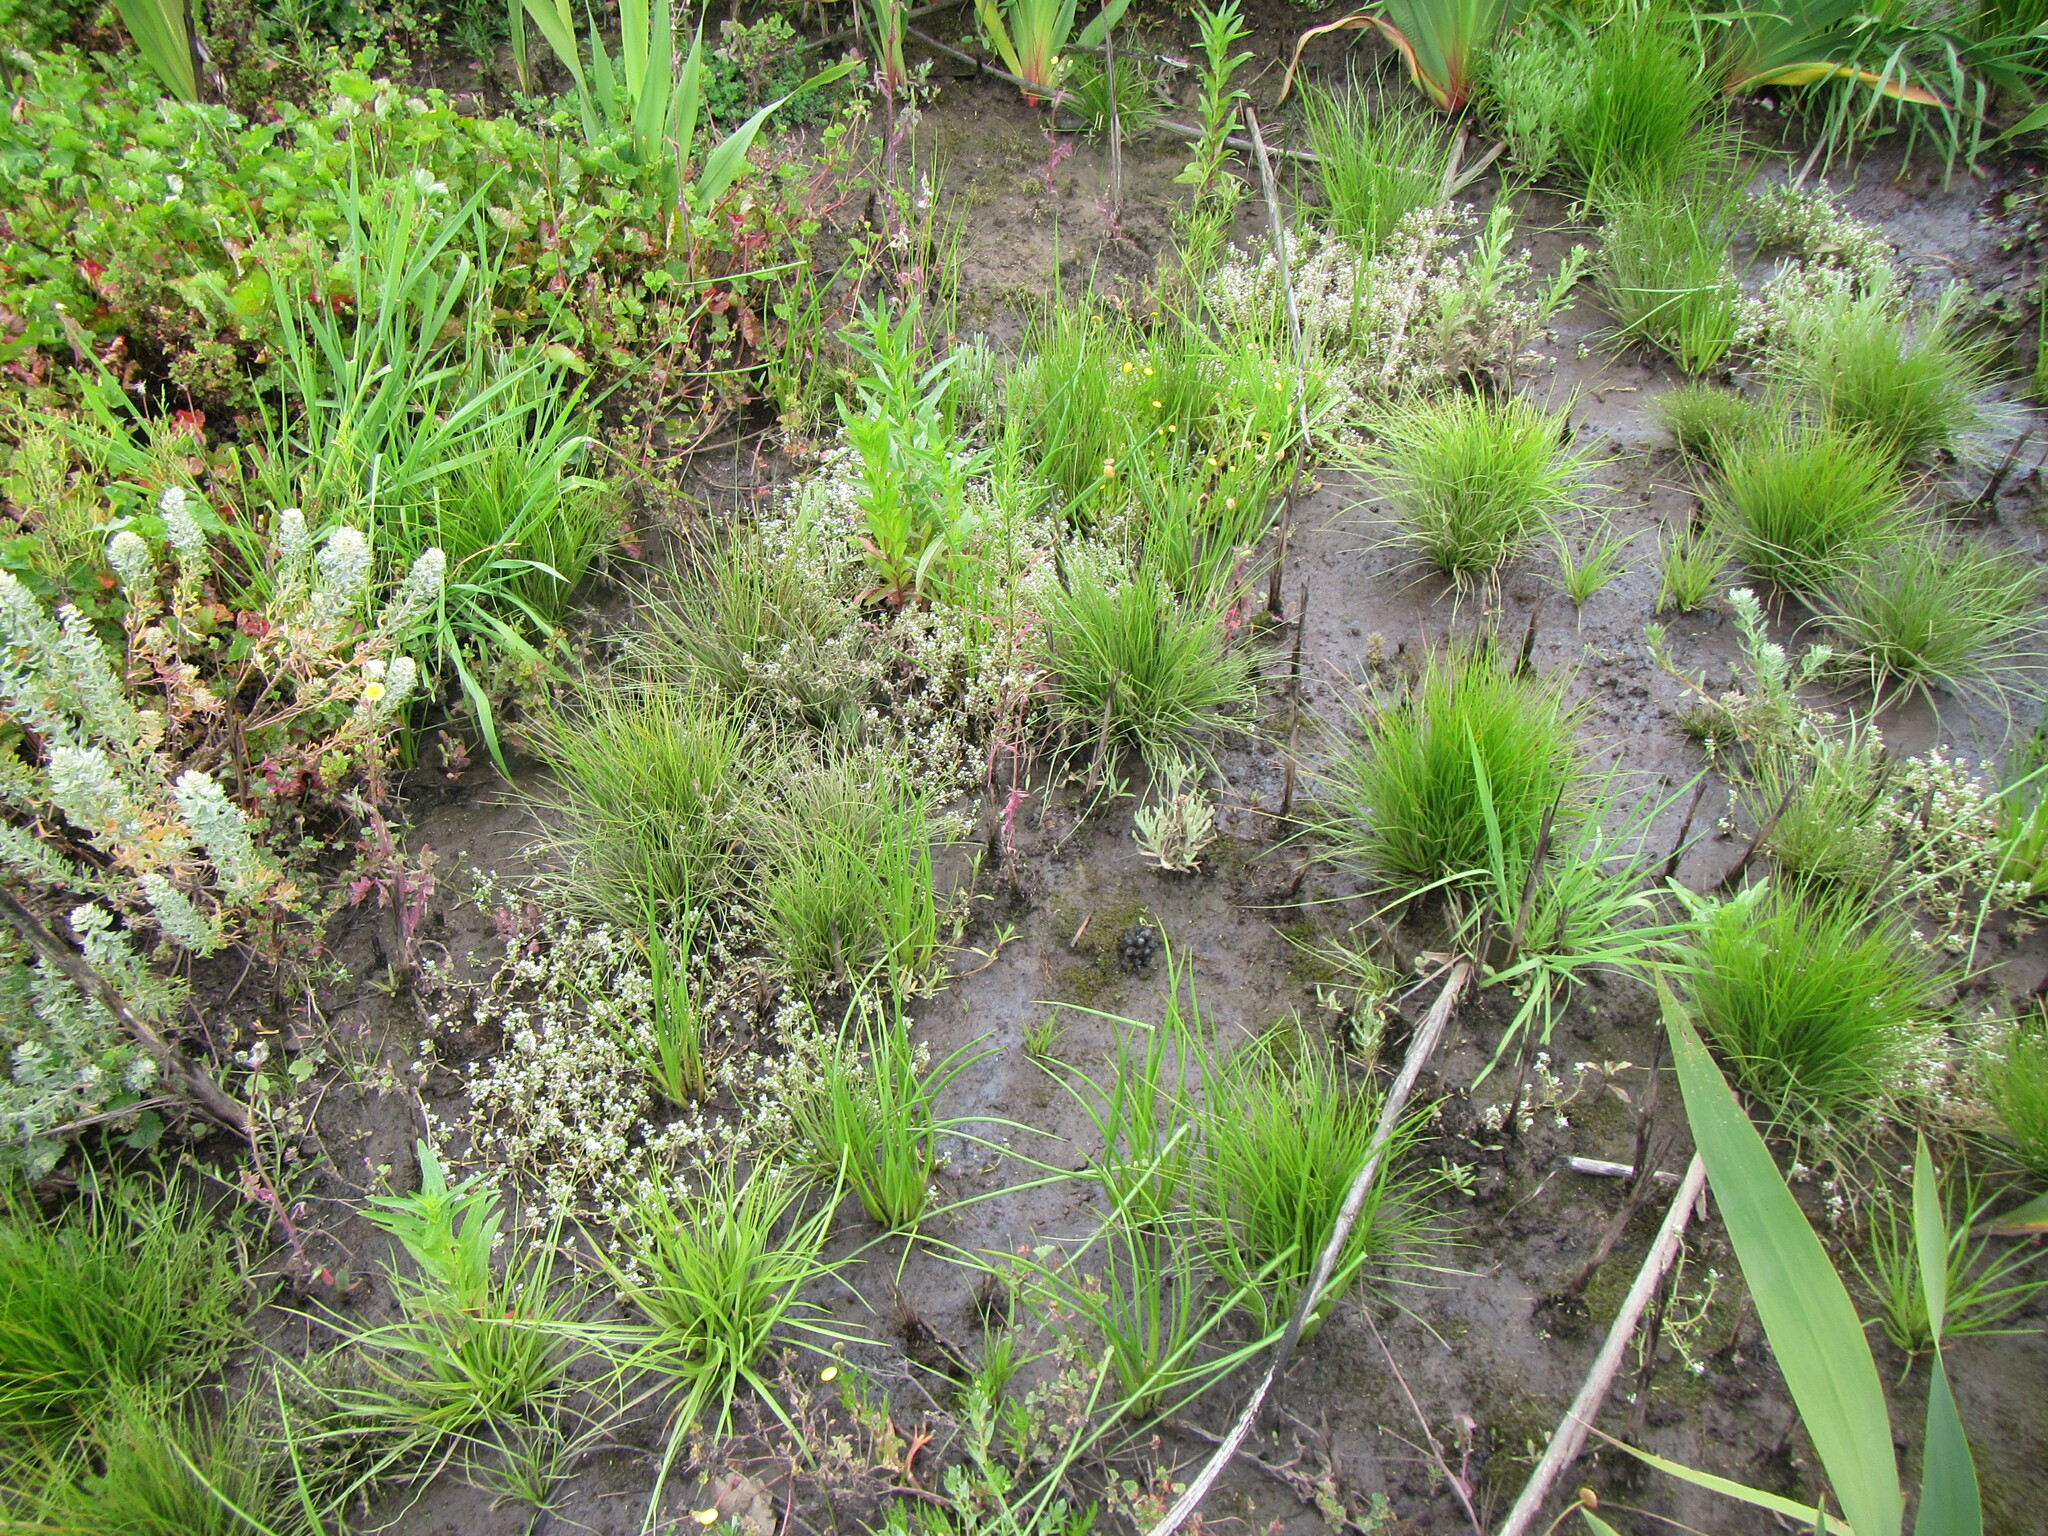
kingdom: Plantae
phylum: Tracheophyta
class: Magnoliopsida
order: Saxifragales
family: Crassulaceae
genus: Crassula
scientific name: Crassula natans
